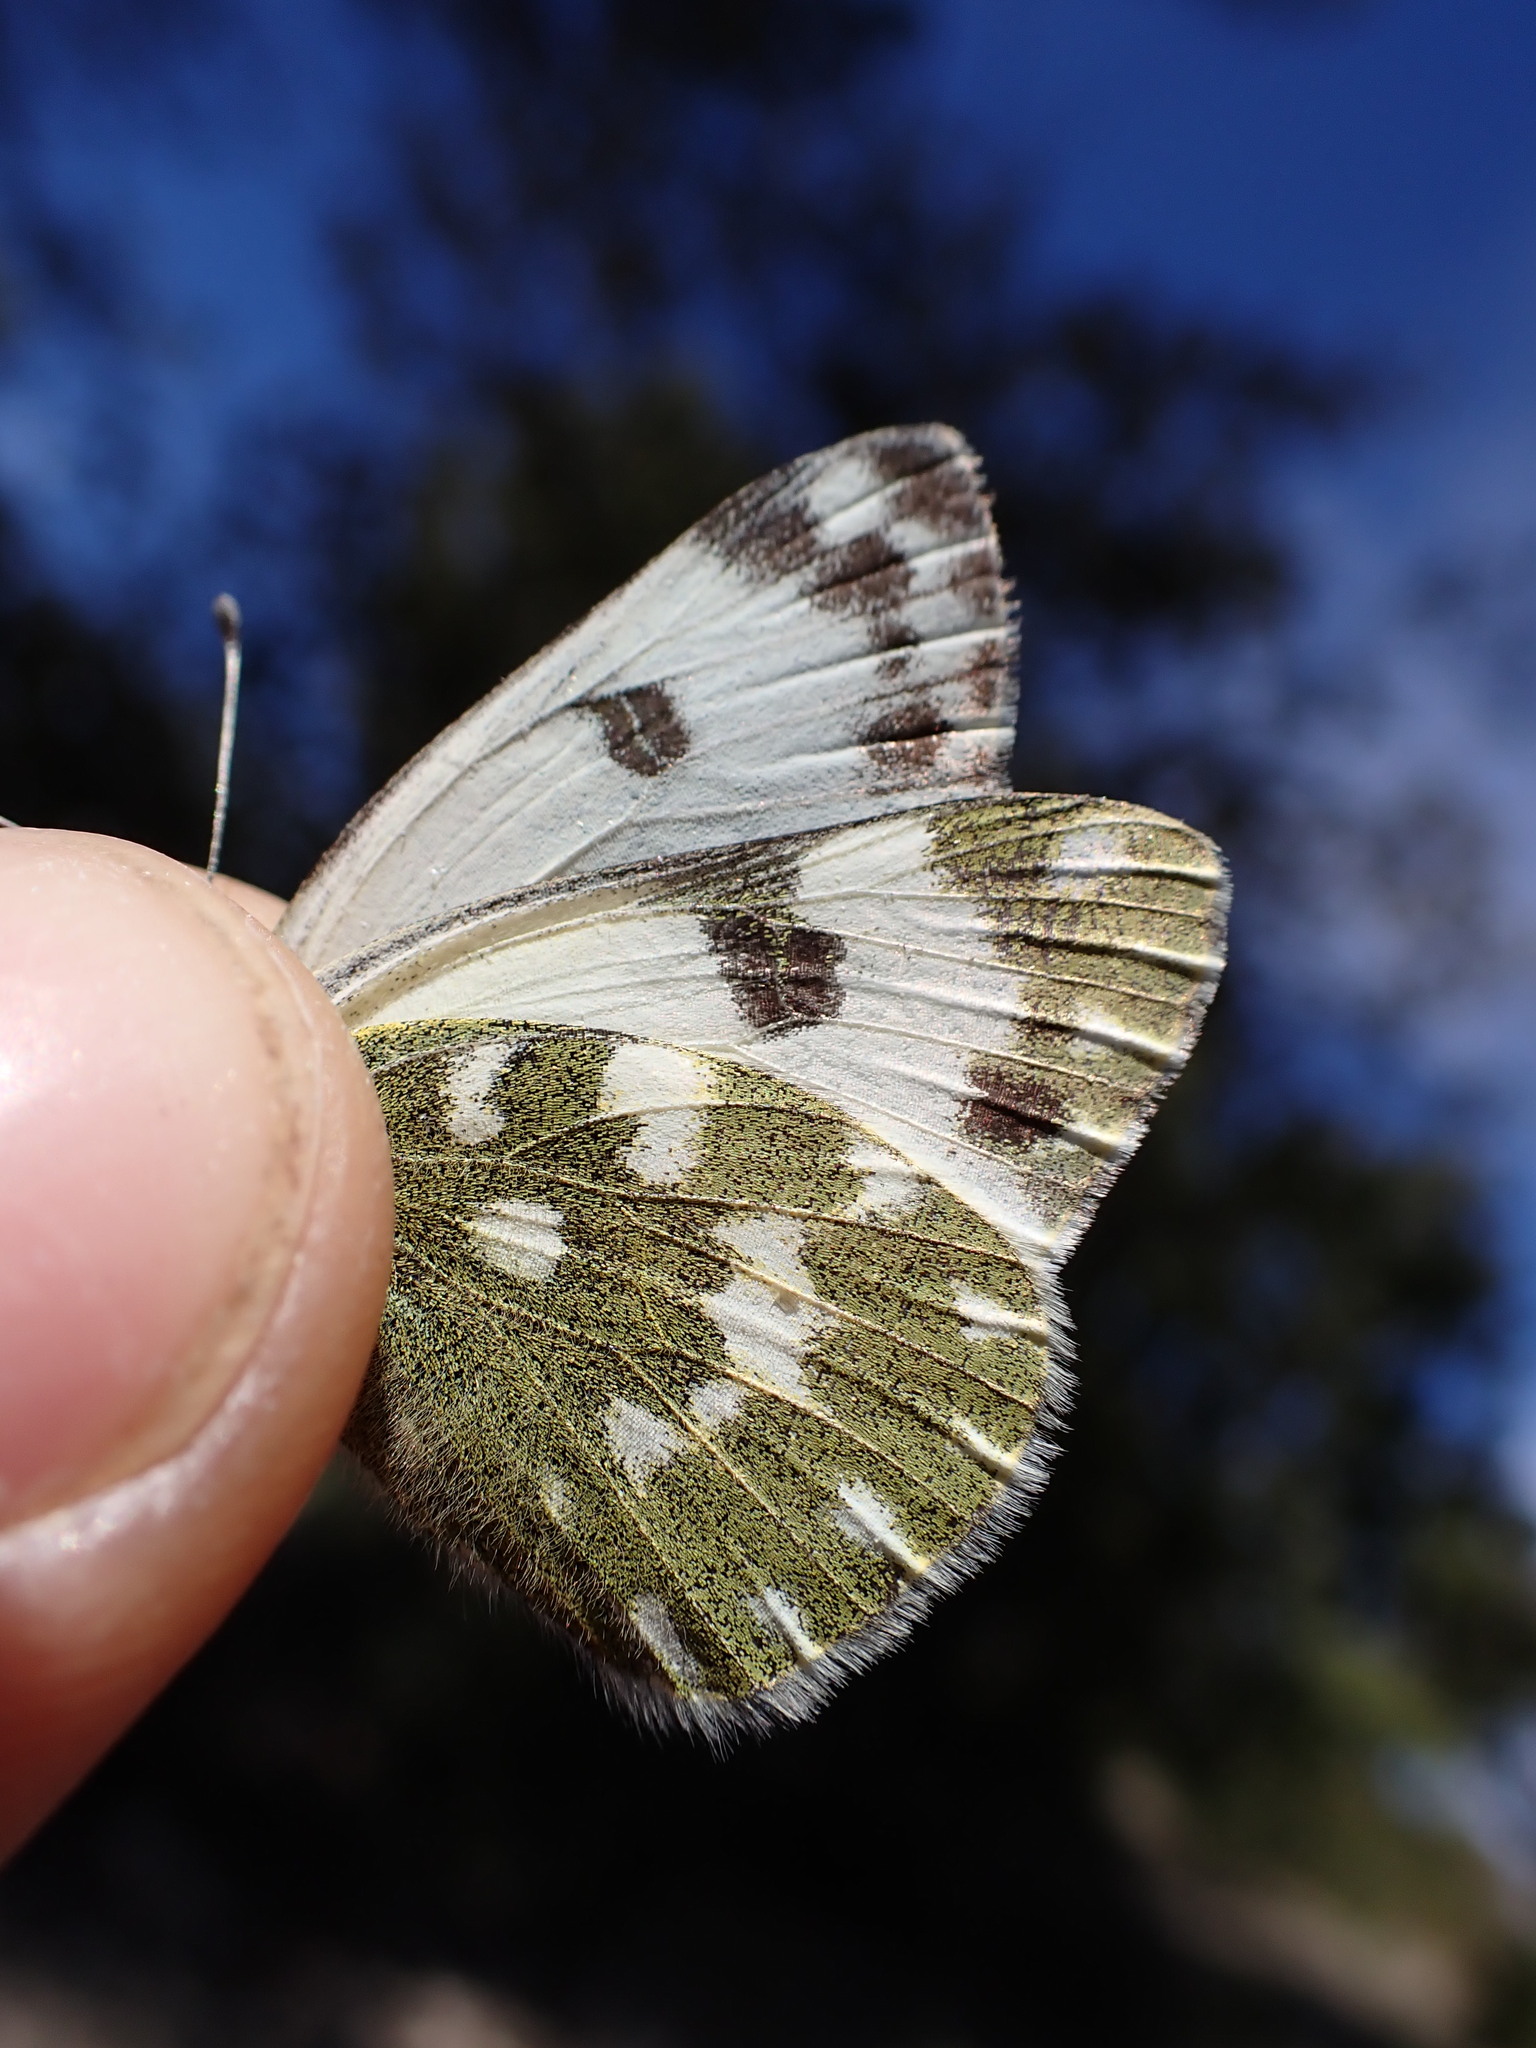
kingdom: Animalia
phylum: Arthropoda
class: Insecta
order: Lepidoptera
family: Pieridae
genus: Pontia
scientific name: Pontia daplidice
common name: Bath white
